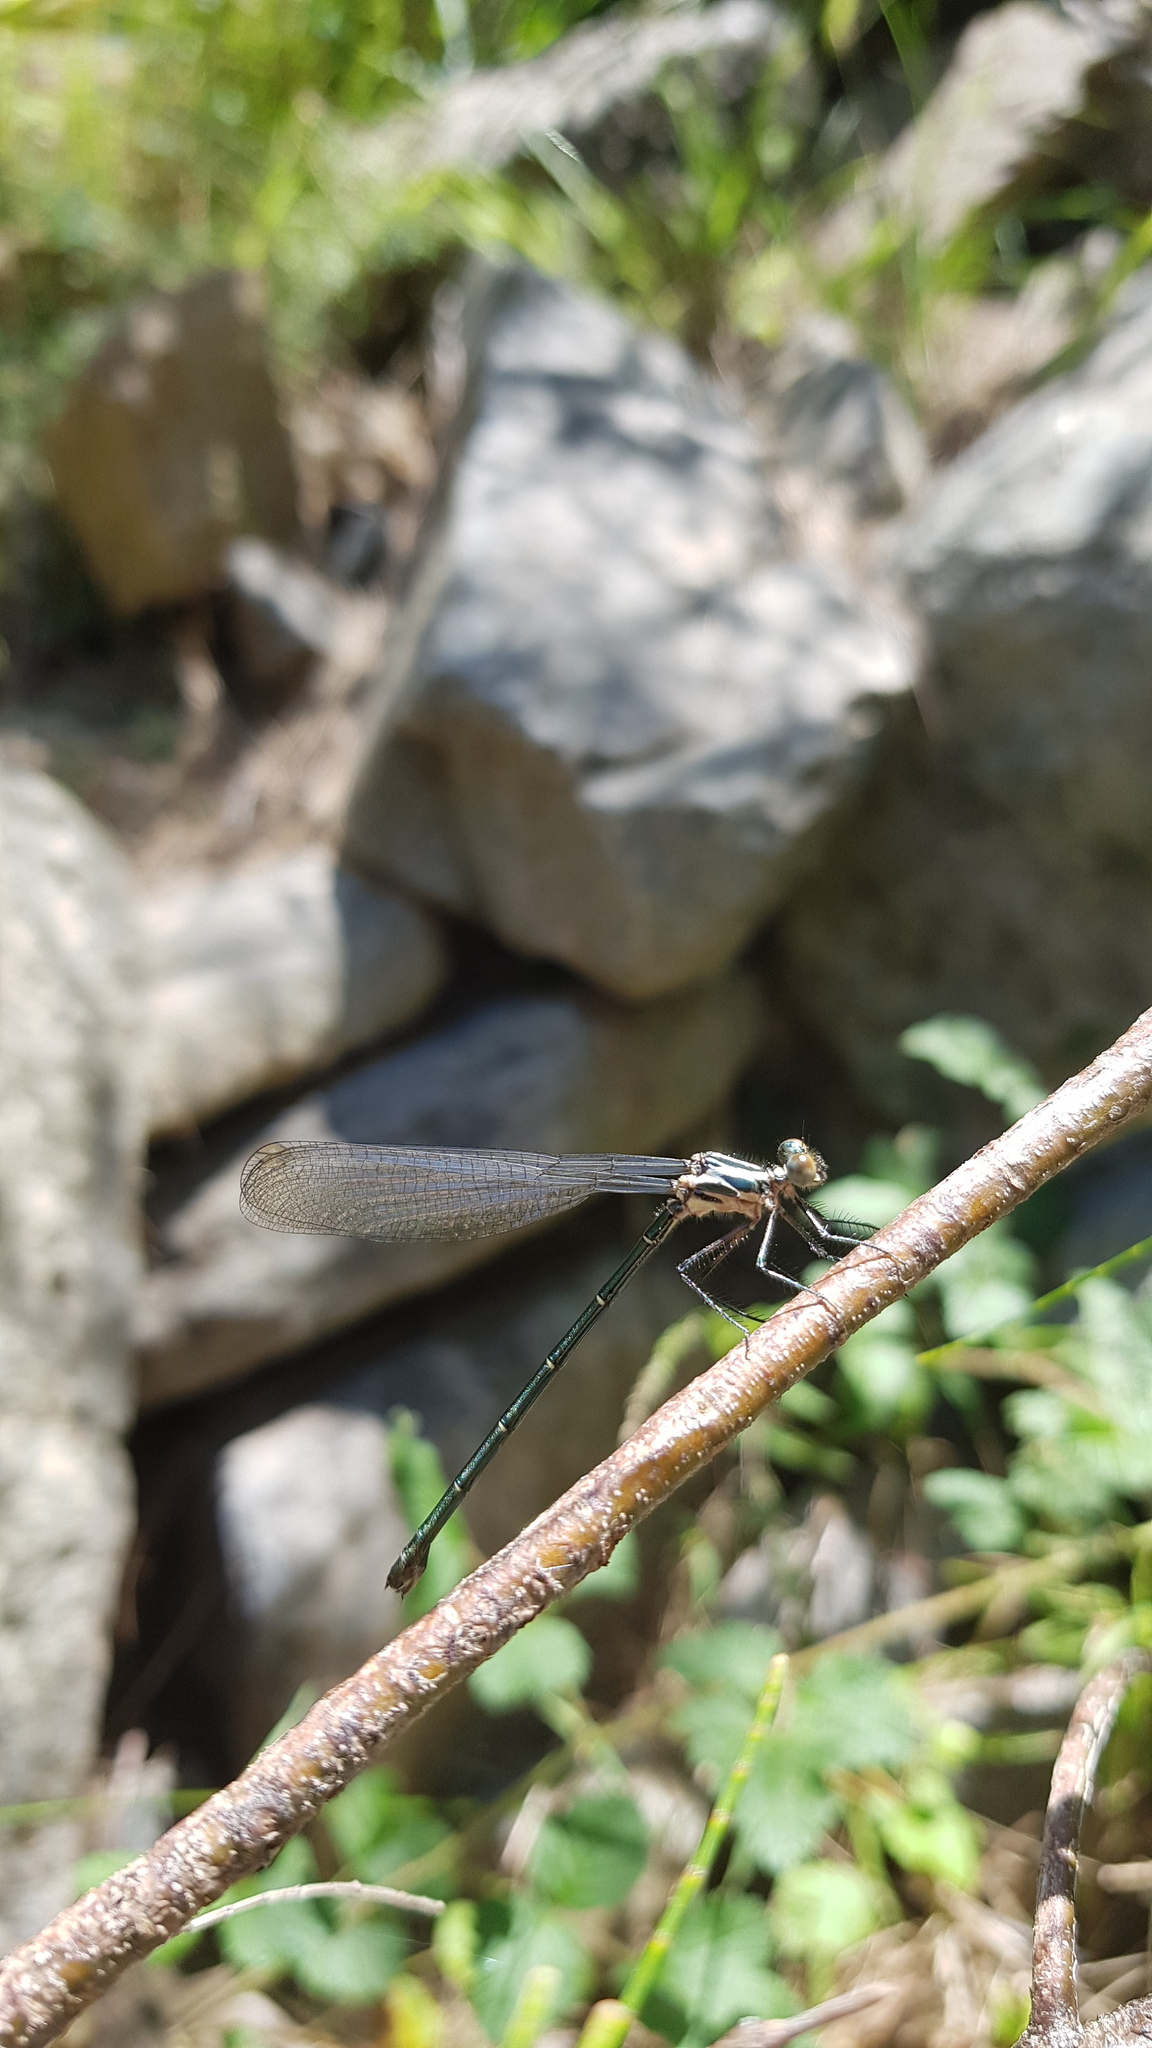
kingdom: Animalia
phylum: Arthropoda
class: Insecta
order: Odonata
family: Argiolestidae
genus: Austroargiolestes
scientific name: Austroargiolestes icteromelas
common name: Common flatwing
